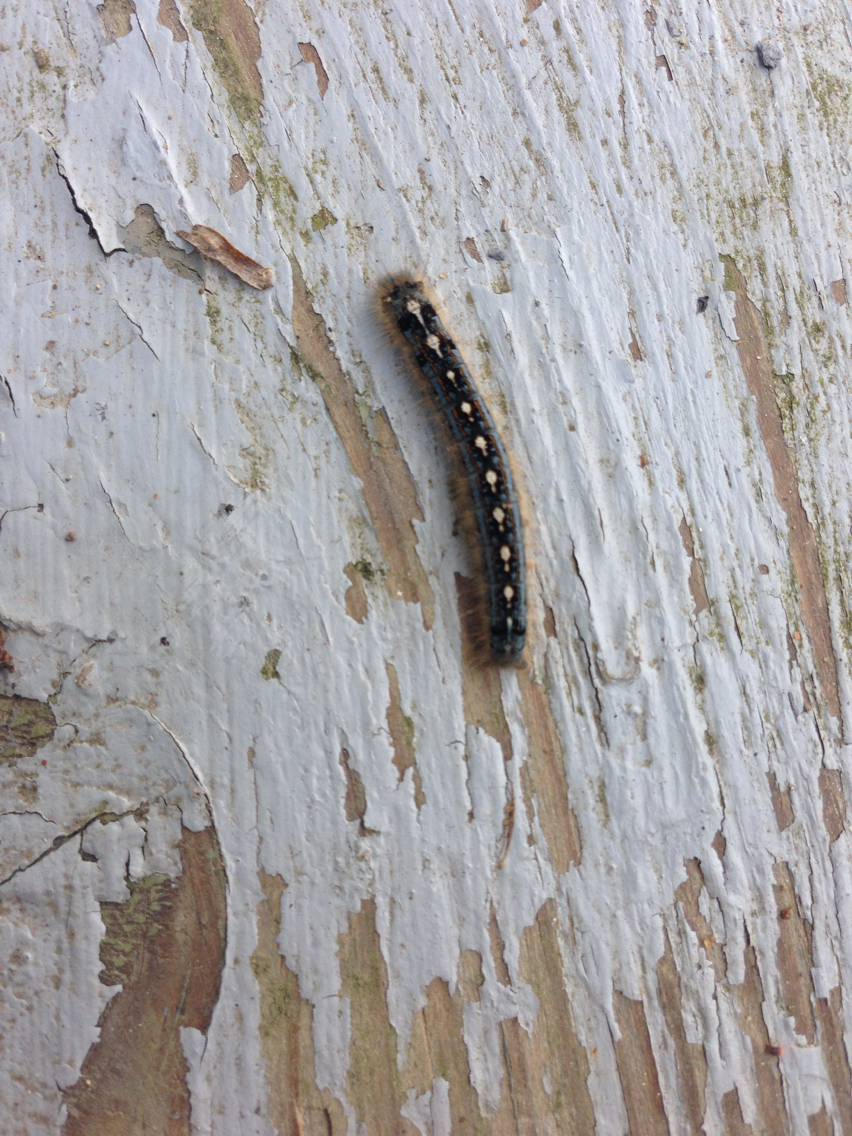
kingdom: Animalia
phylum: Arthropoda
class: Insecta
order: Lepidoptera
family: Lasiocampidae
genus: Malacosoma
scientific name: Malacosoma disstria
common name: Forest tent caterpillar
